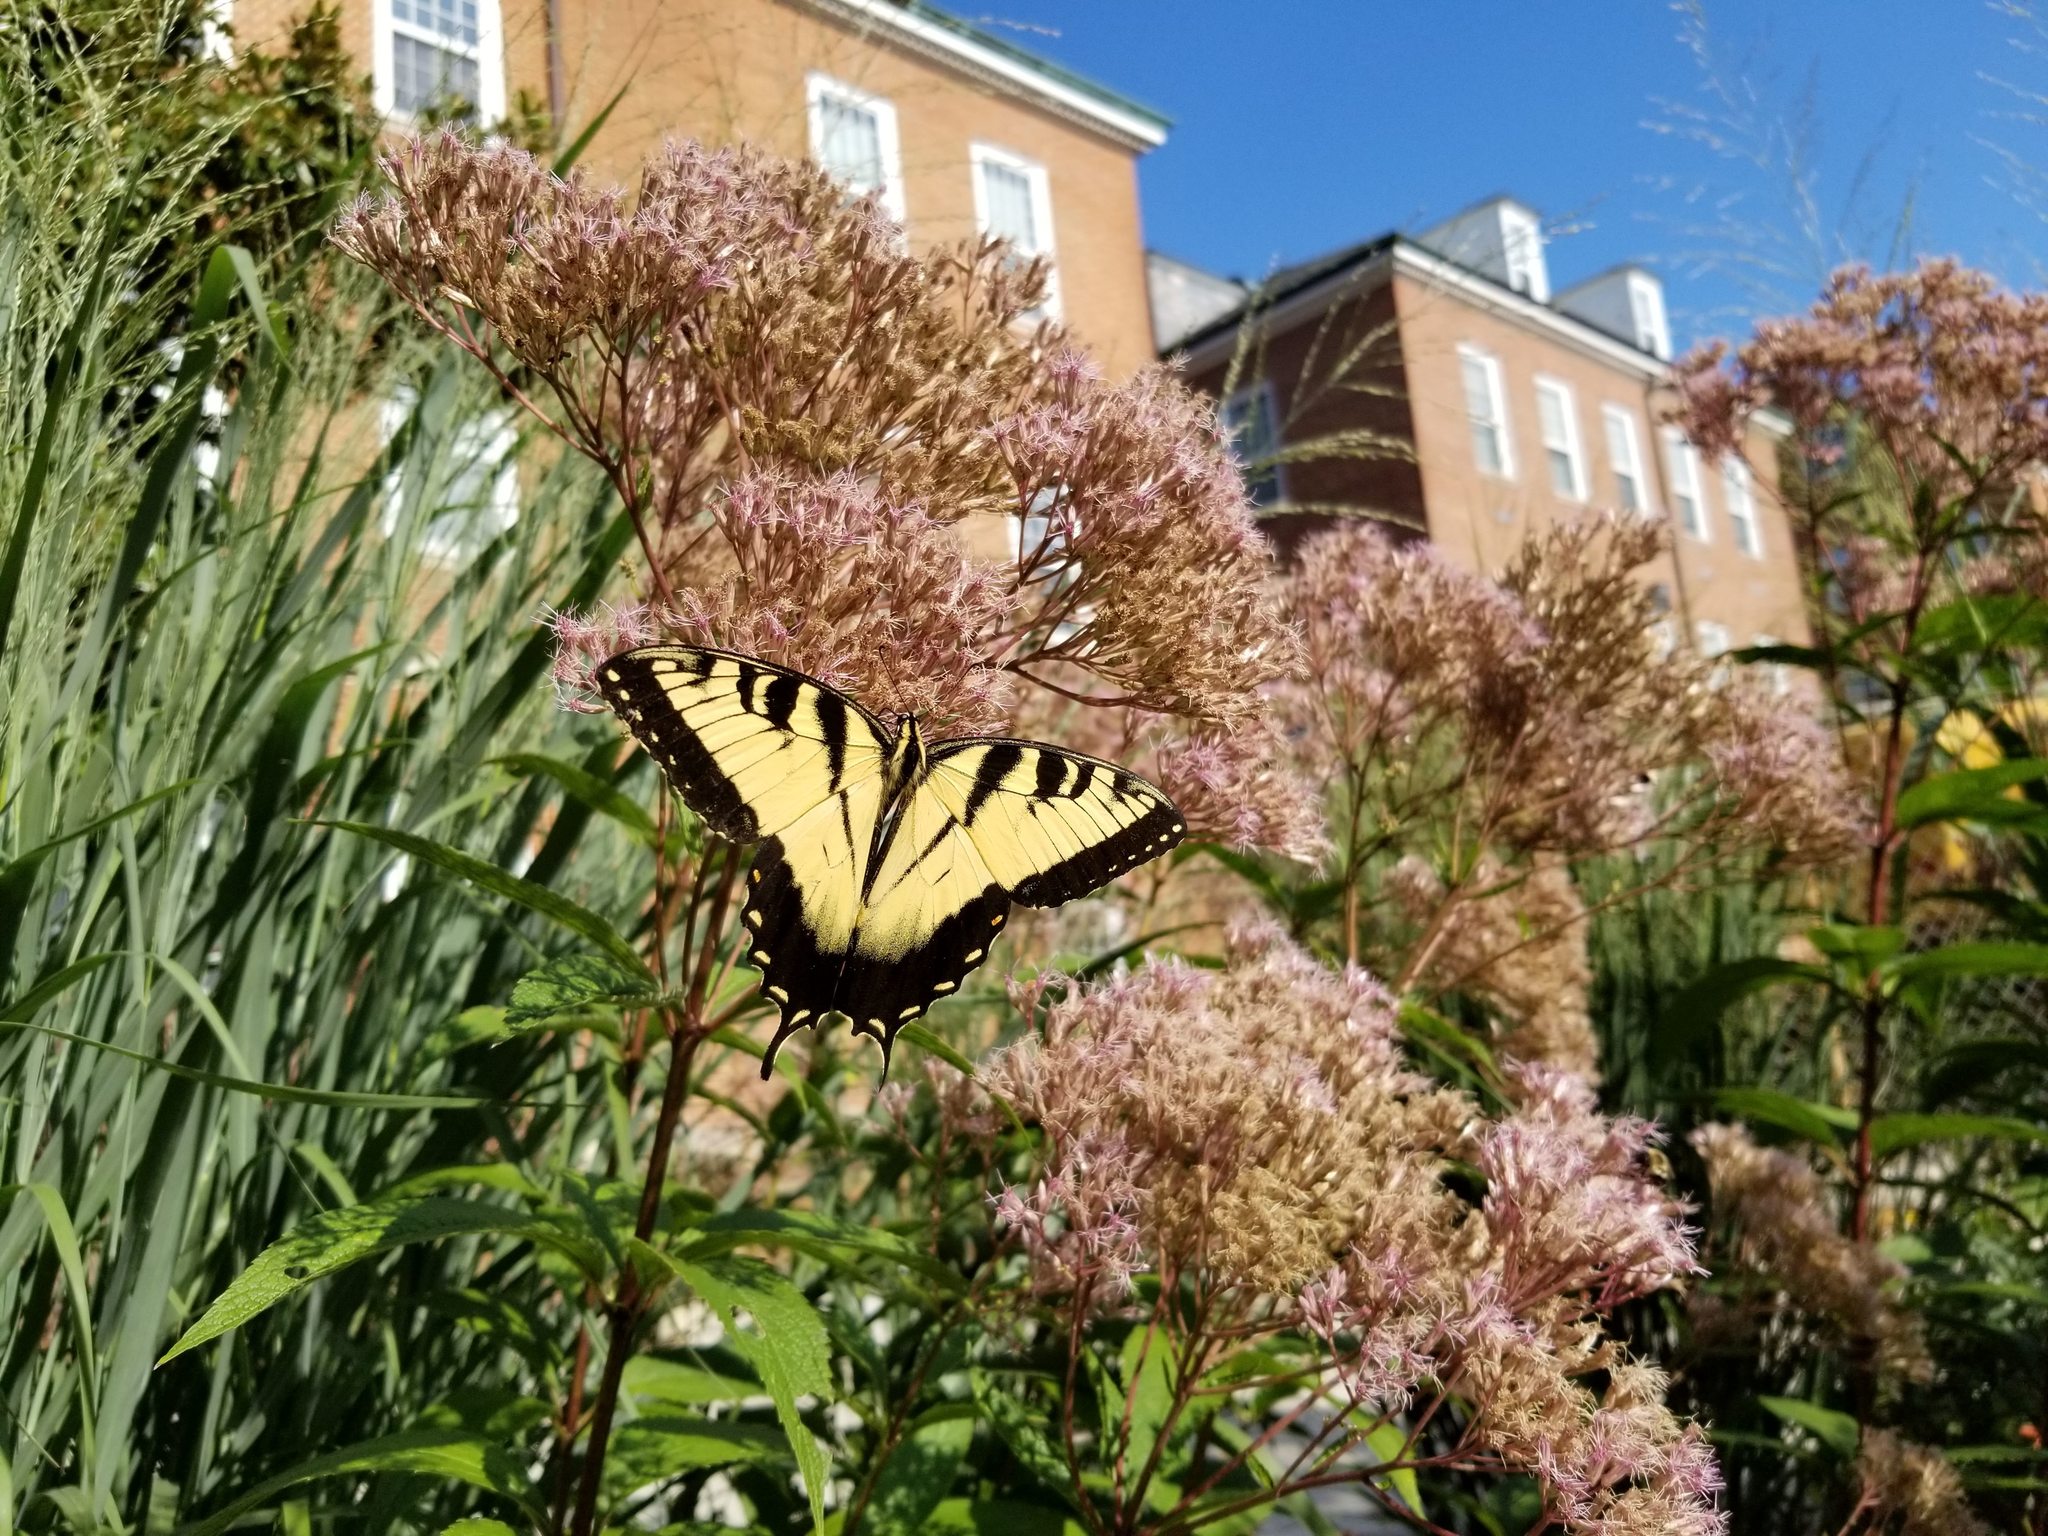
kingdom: Animalia
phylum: Arthropoda
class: Insecta
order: Lepidoptera
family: Papilionidae
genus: Papilio
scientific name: Papilio glaucus
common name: Tiger swallowtail
